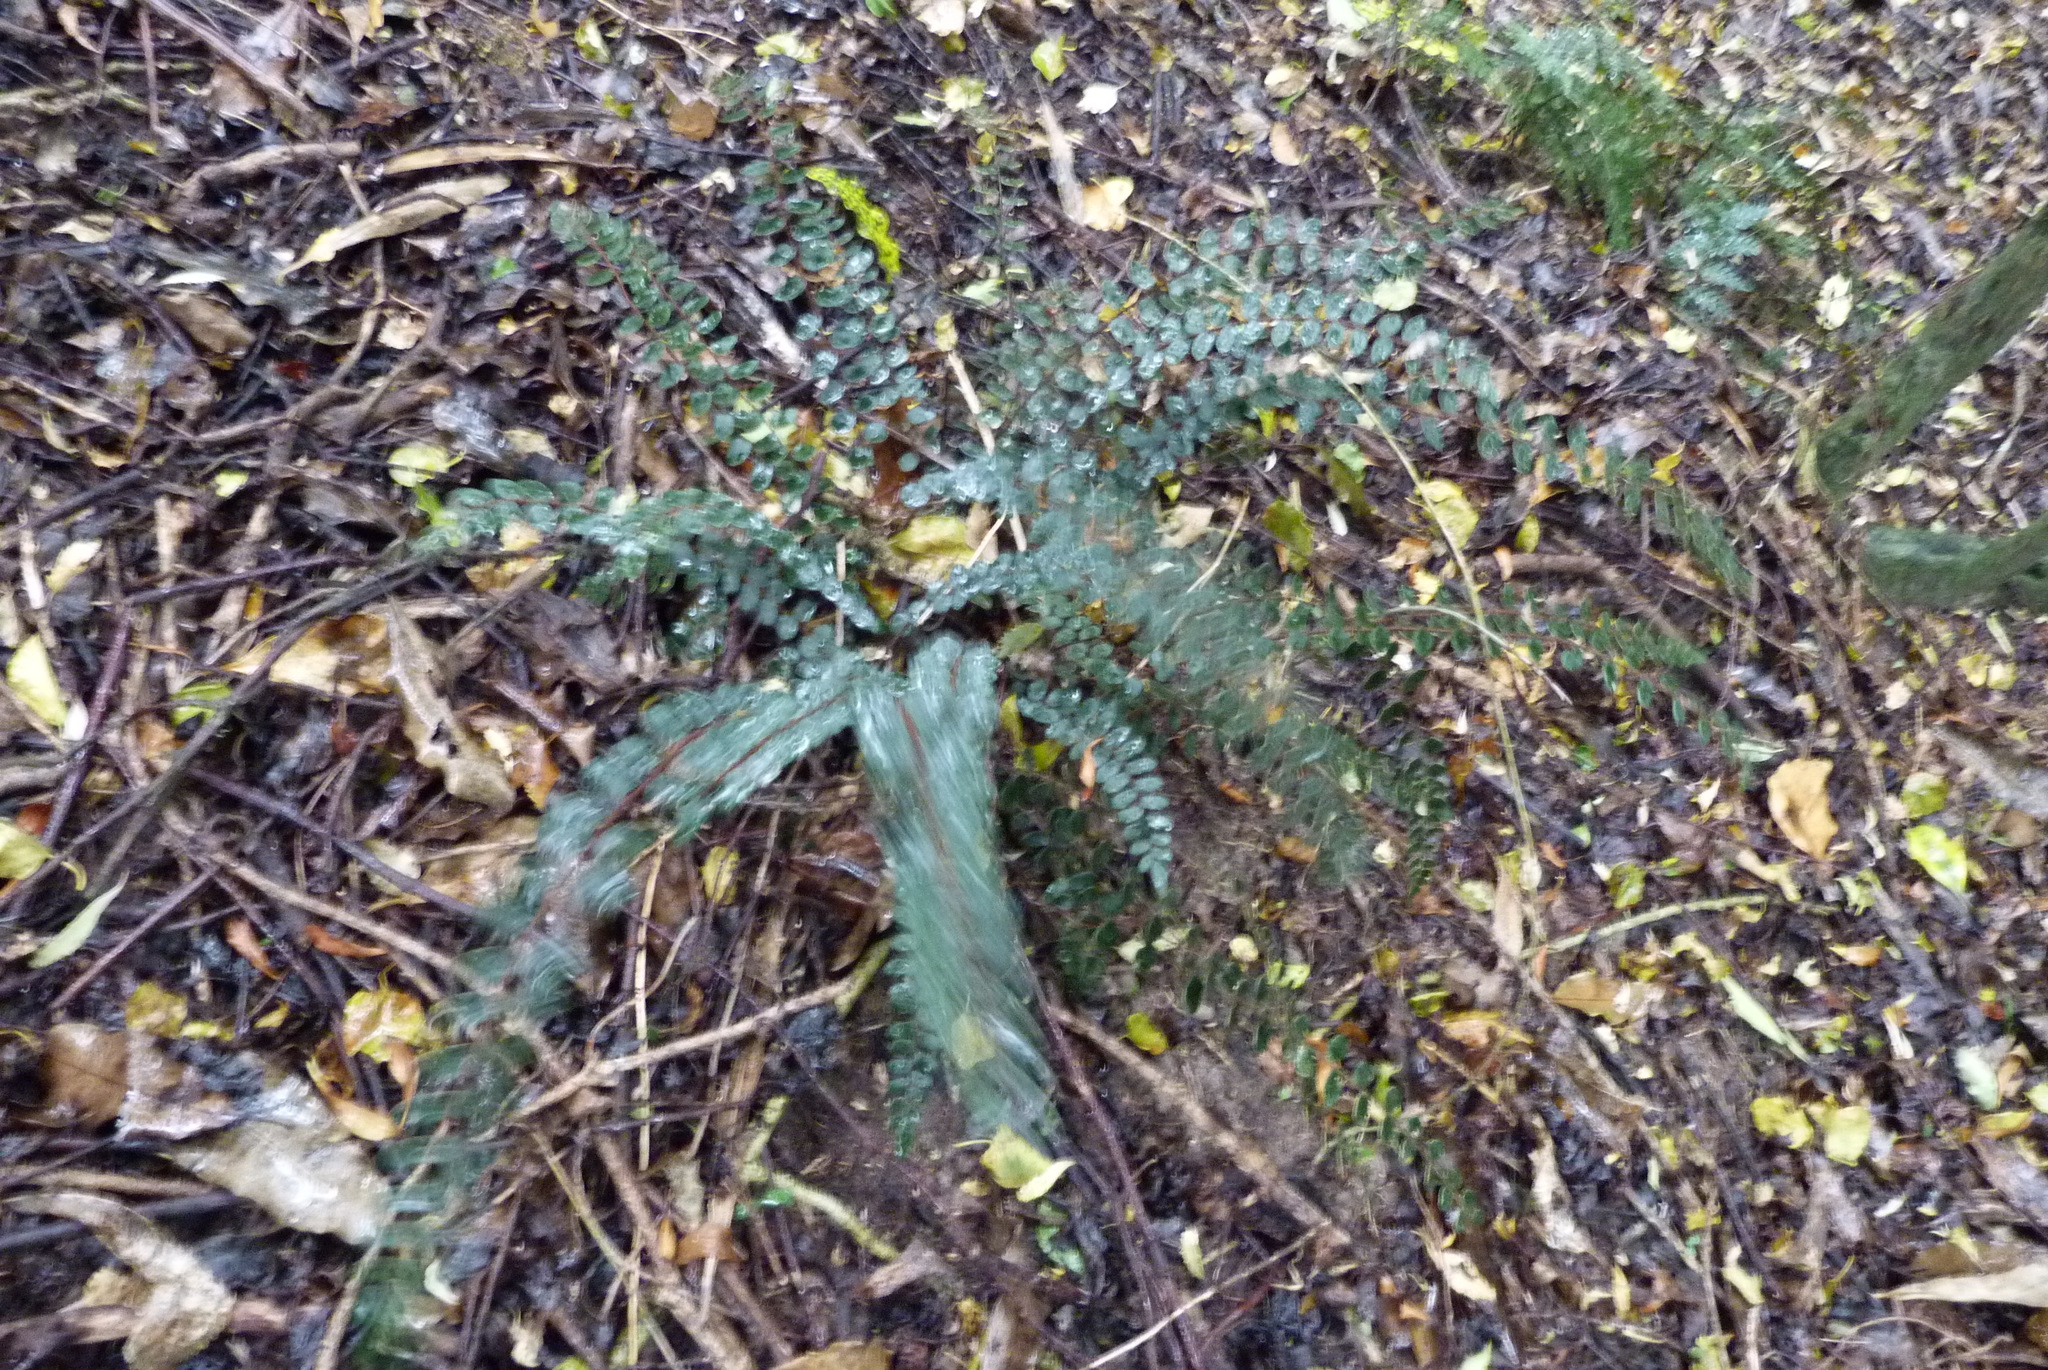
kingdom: Plantae
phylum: Tracheophyta
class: Polypodiopsida
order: Polypodiales
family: Pteridaceae
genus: Pellaea
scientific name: Pellaea rotundifolia
